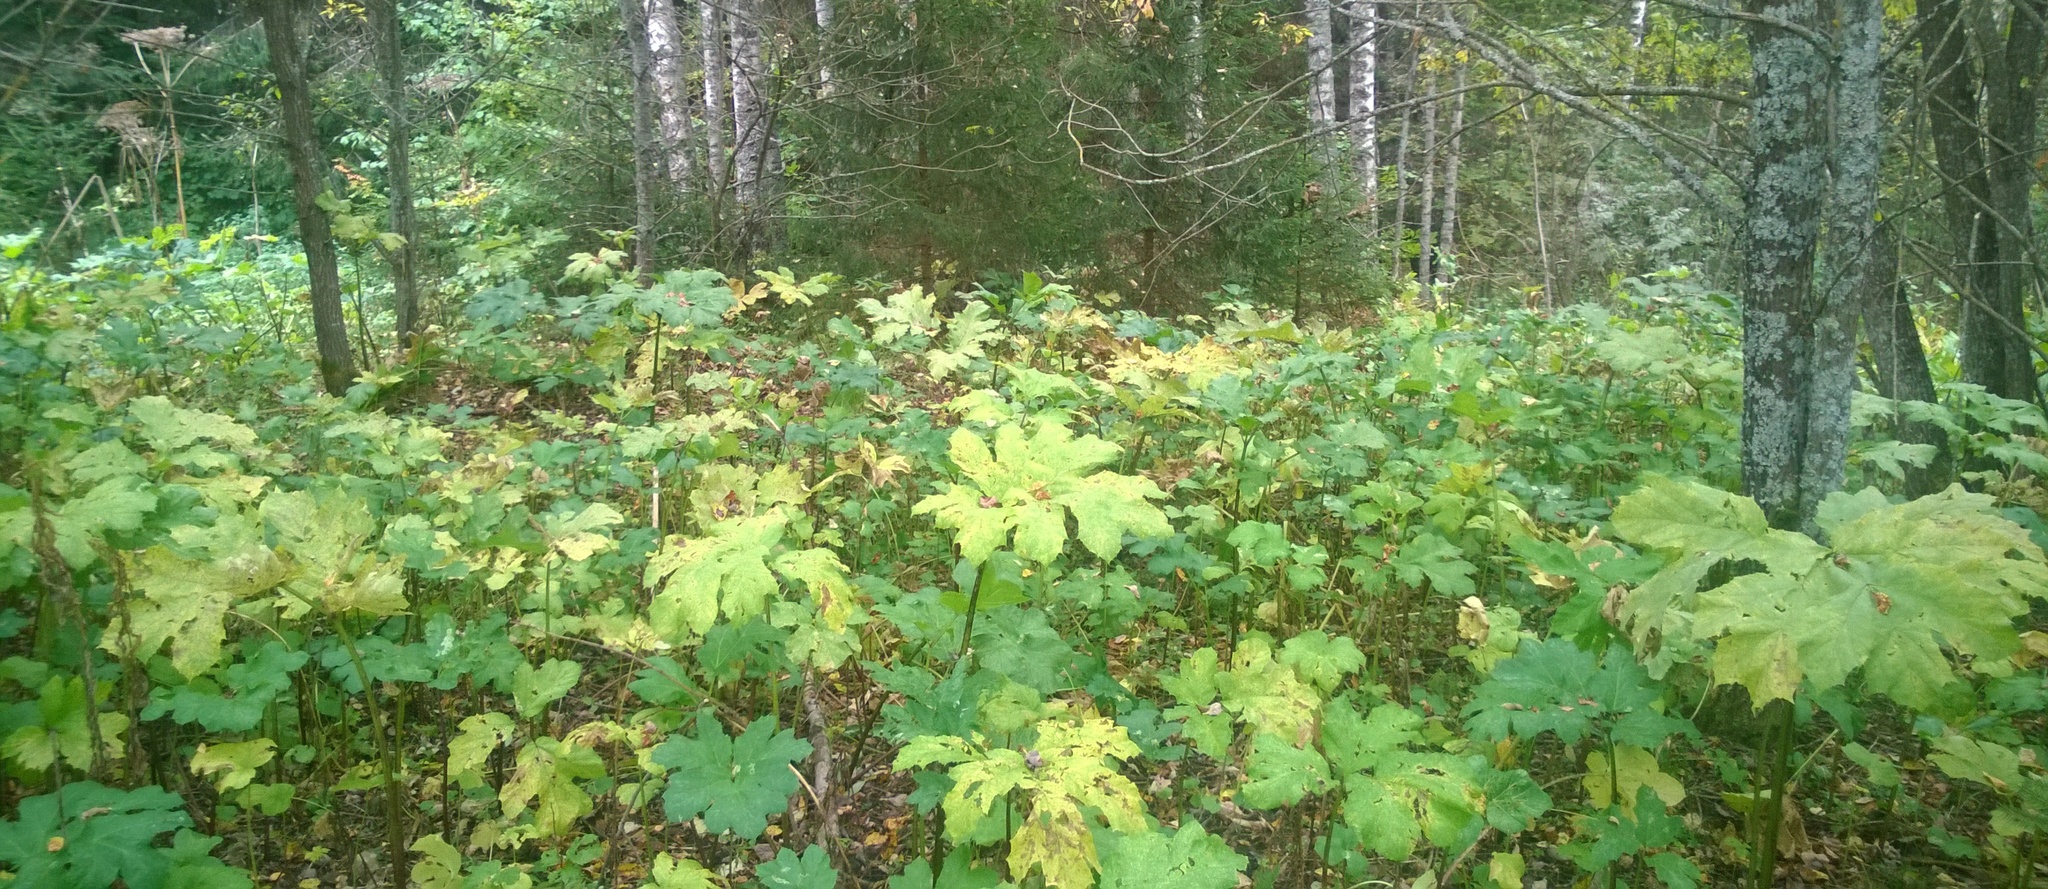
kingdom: Plantae
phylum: Tracheophyta
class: Magnoliopsida
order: Apiales
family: Apiaceae
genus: Heracleum
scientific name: Heracleum sosnowskyi
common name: Sosnowsky's hogweed
